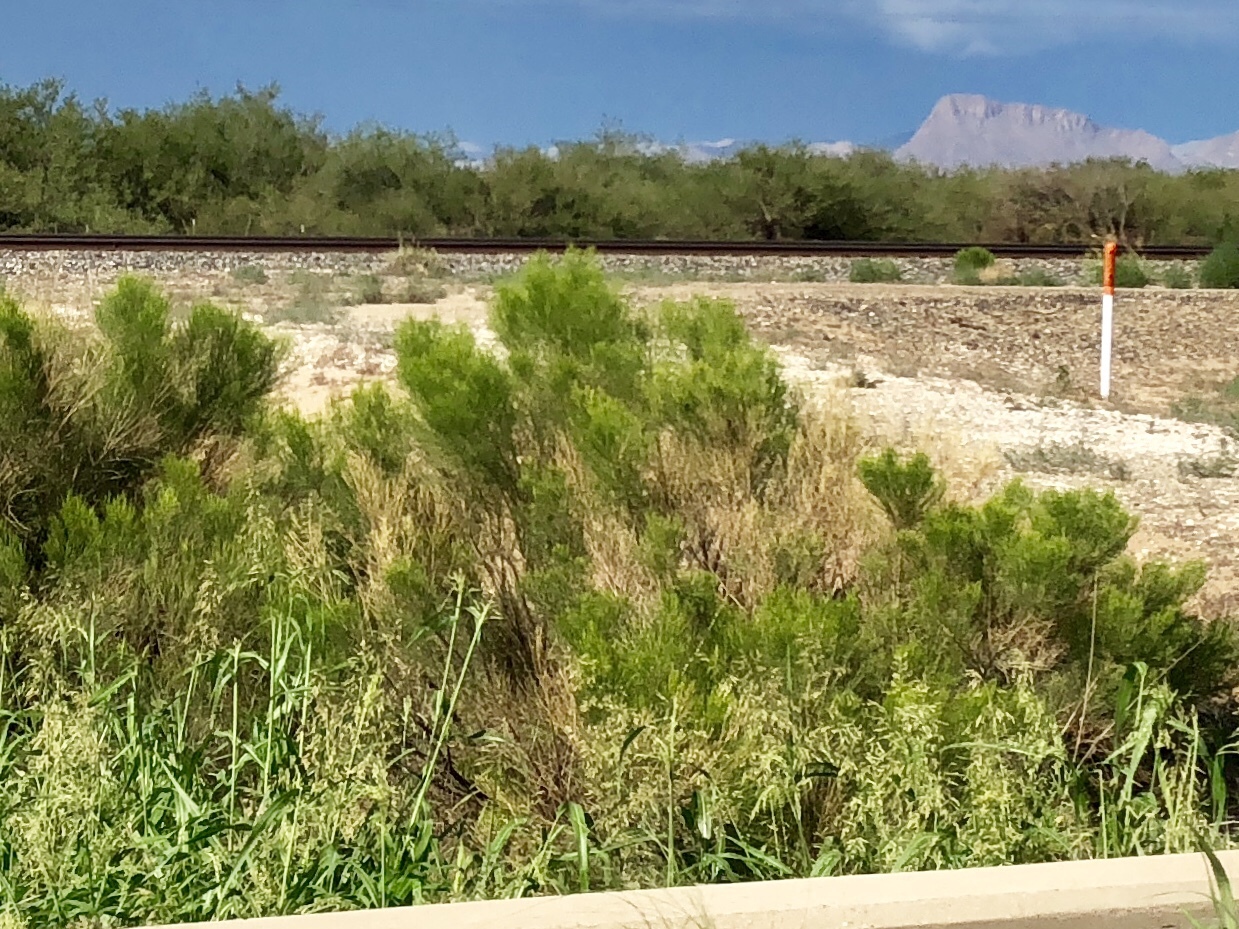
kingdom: Plantae
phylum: Tracheophyta
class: Magnoliopsida
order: Asterales
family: Asteraceae
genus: Baccharis
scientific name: Baccharis sarothroides
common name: Desert-broom
